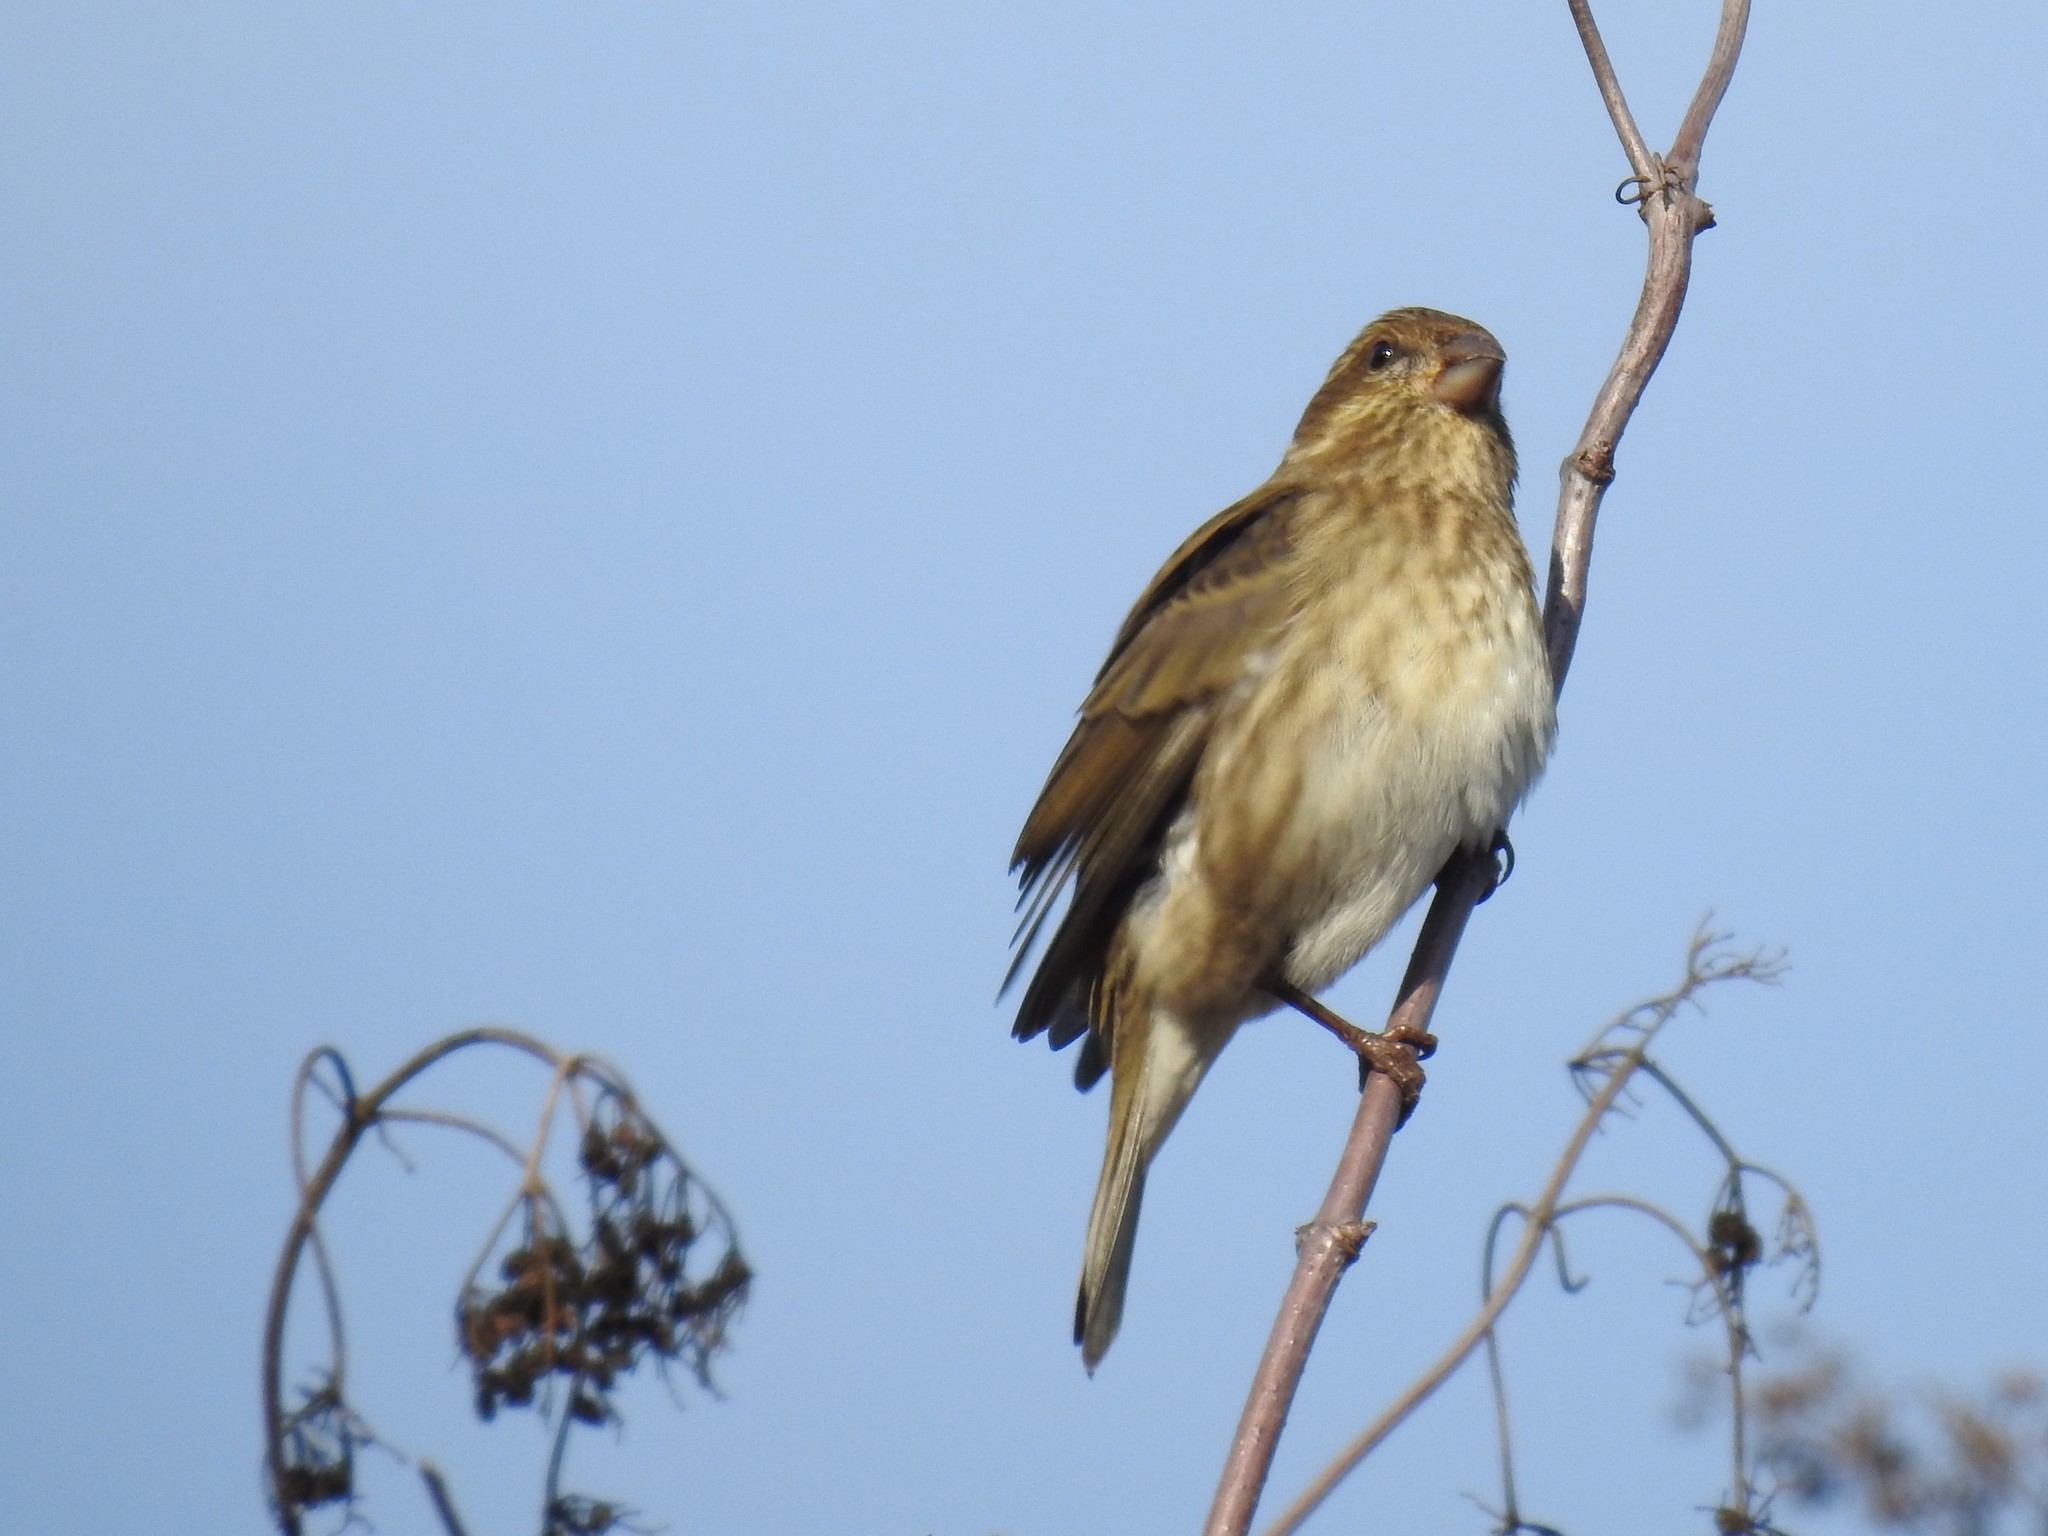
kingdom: Animalia
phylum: Chordata
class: Aves
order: Passeriformes
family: Fringillidae
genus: Haemorhous
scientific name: Haemorhous purpureus
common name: Purple finch
